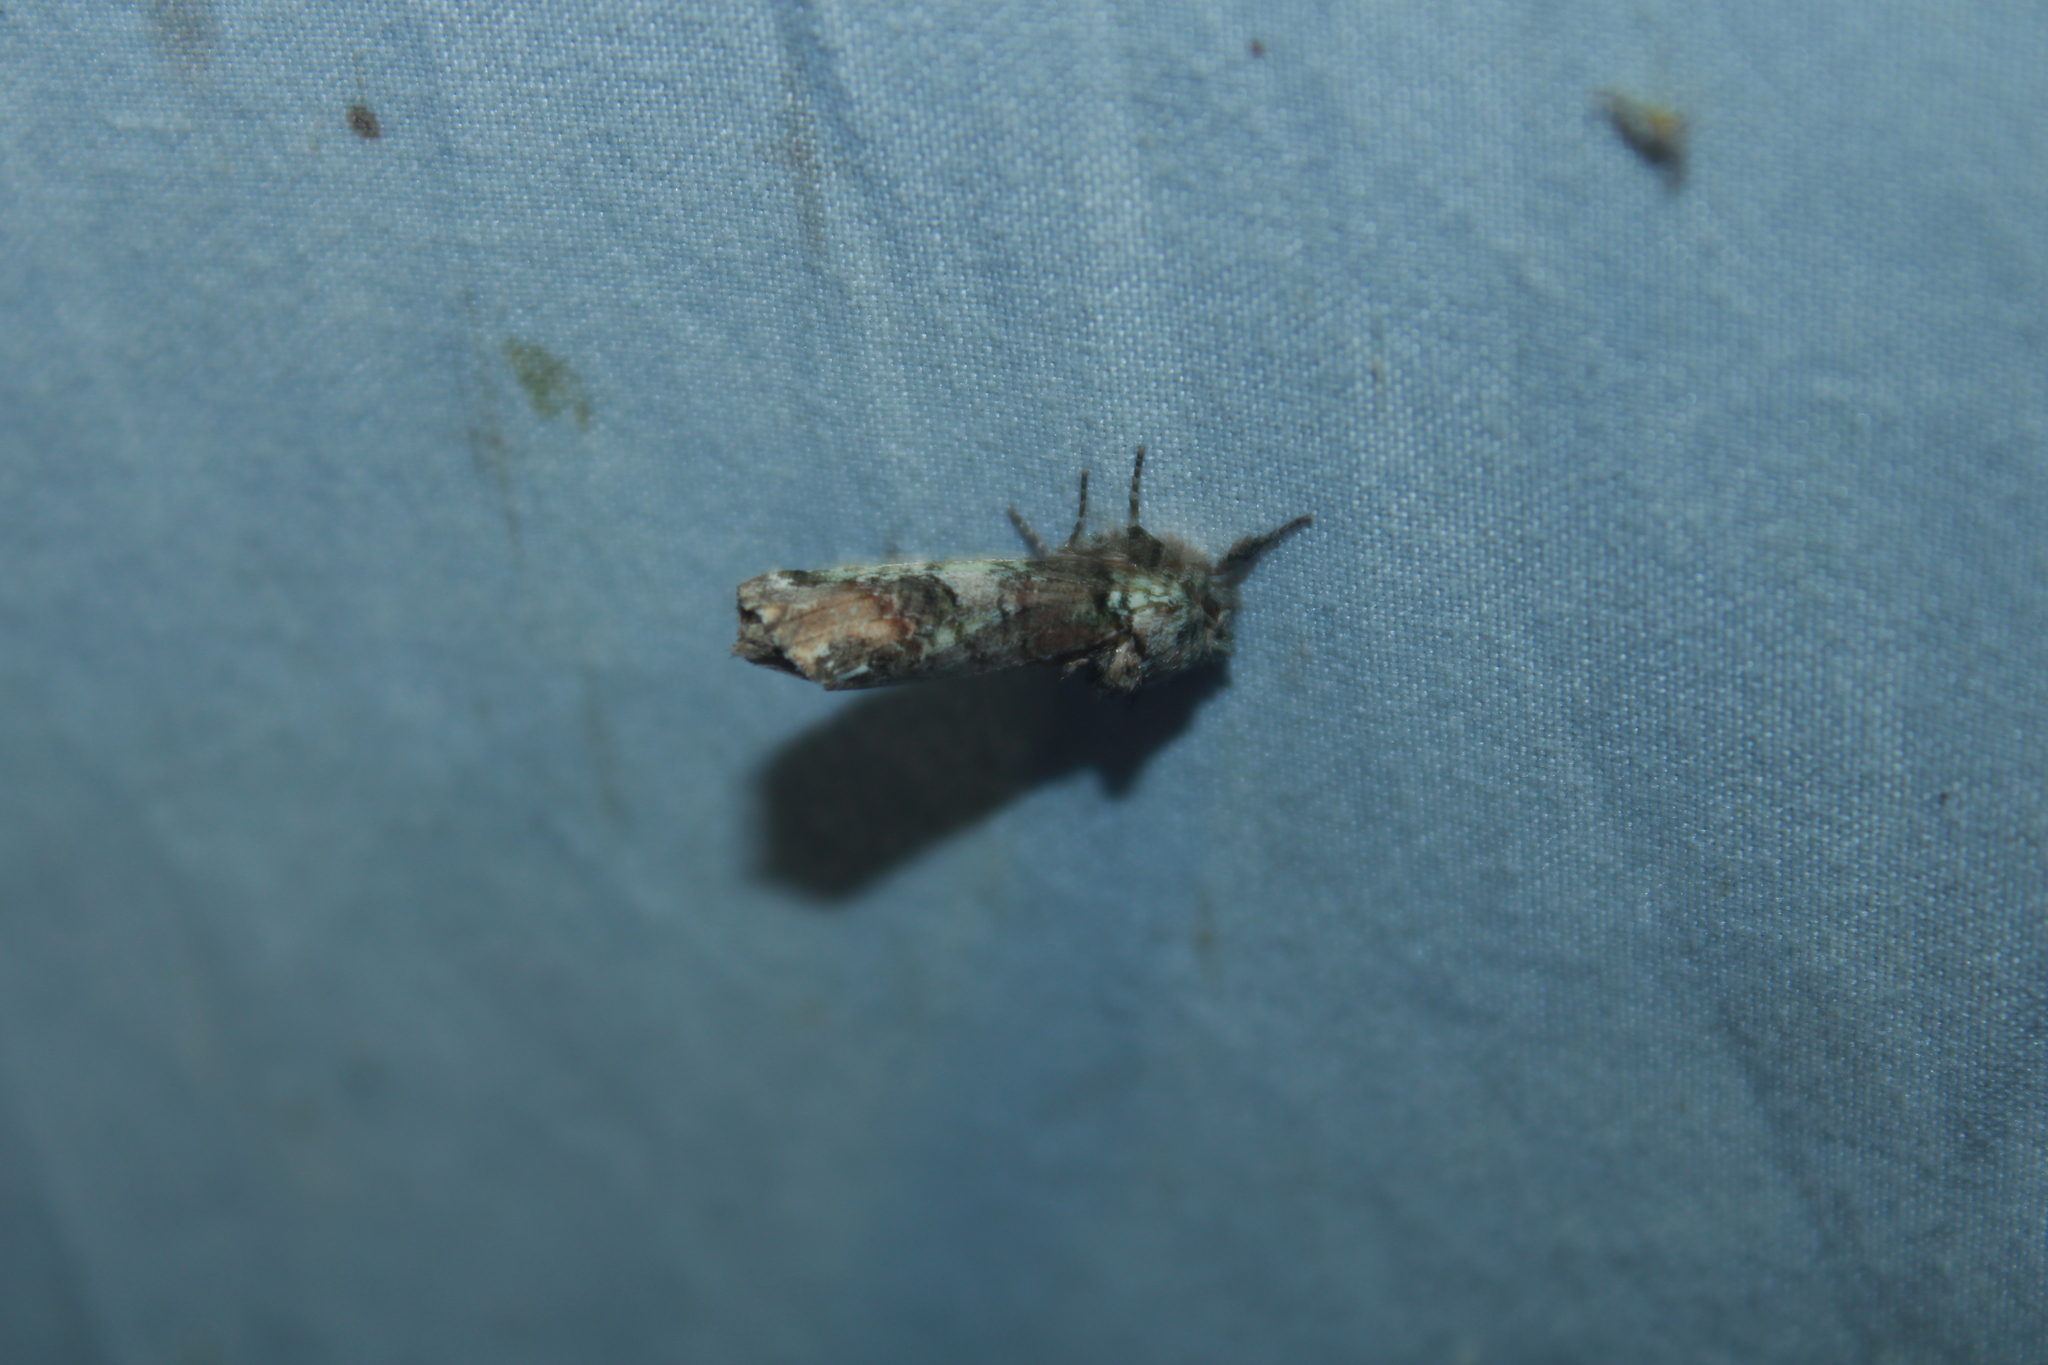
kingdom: Animalia
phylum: Arthropoda
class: Insecta
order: Lepidoptera
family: Notodontidae
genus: Schizura
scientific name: Schizura
